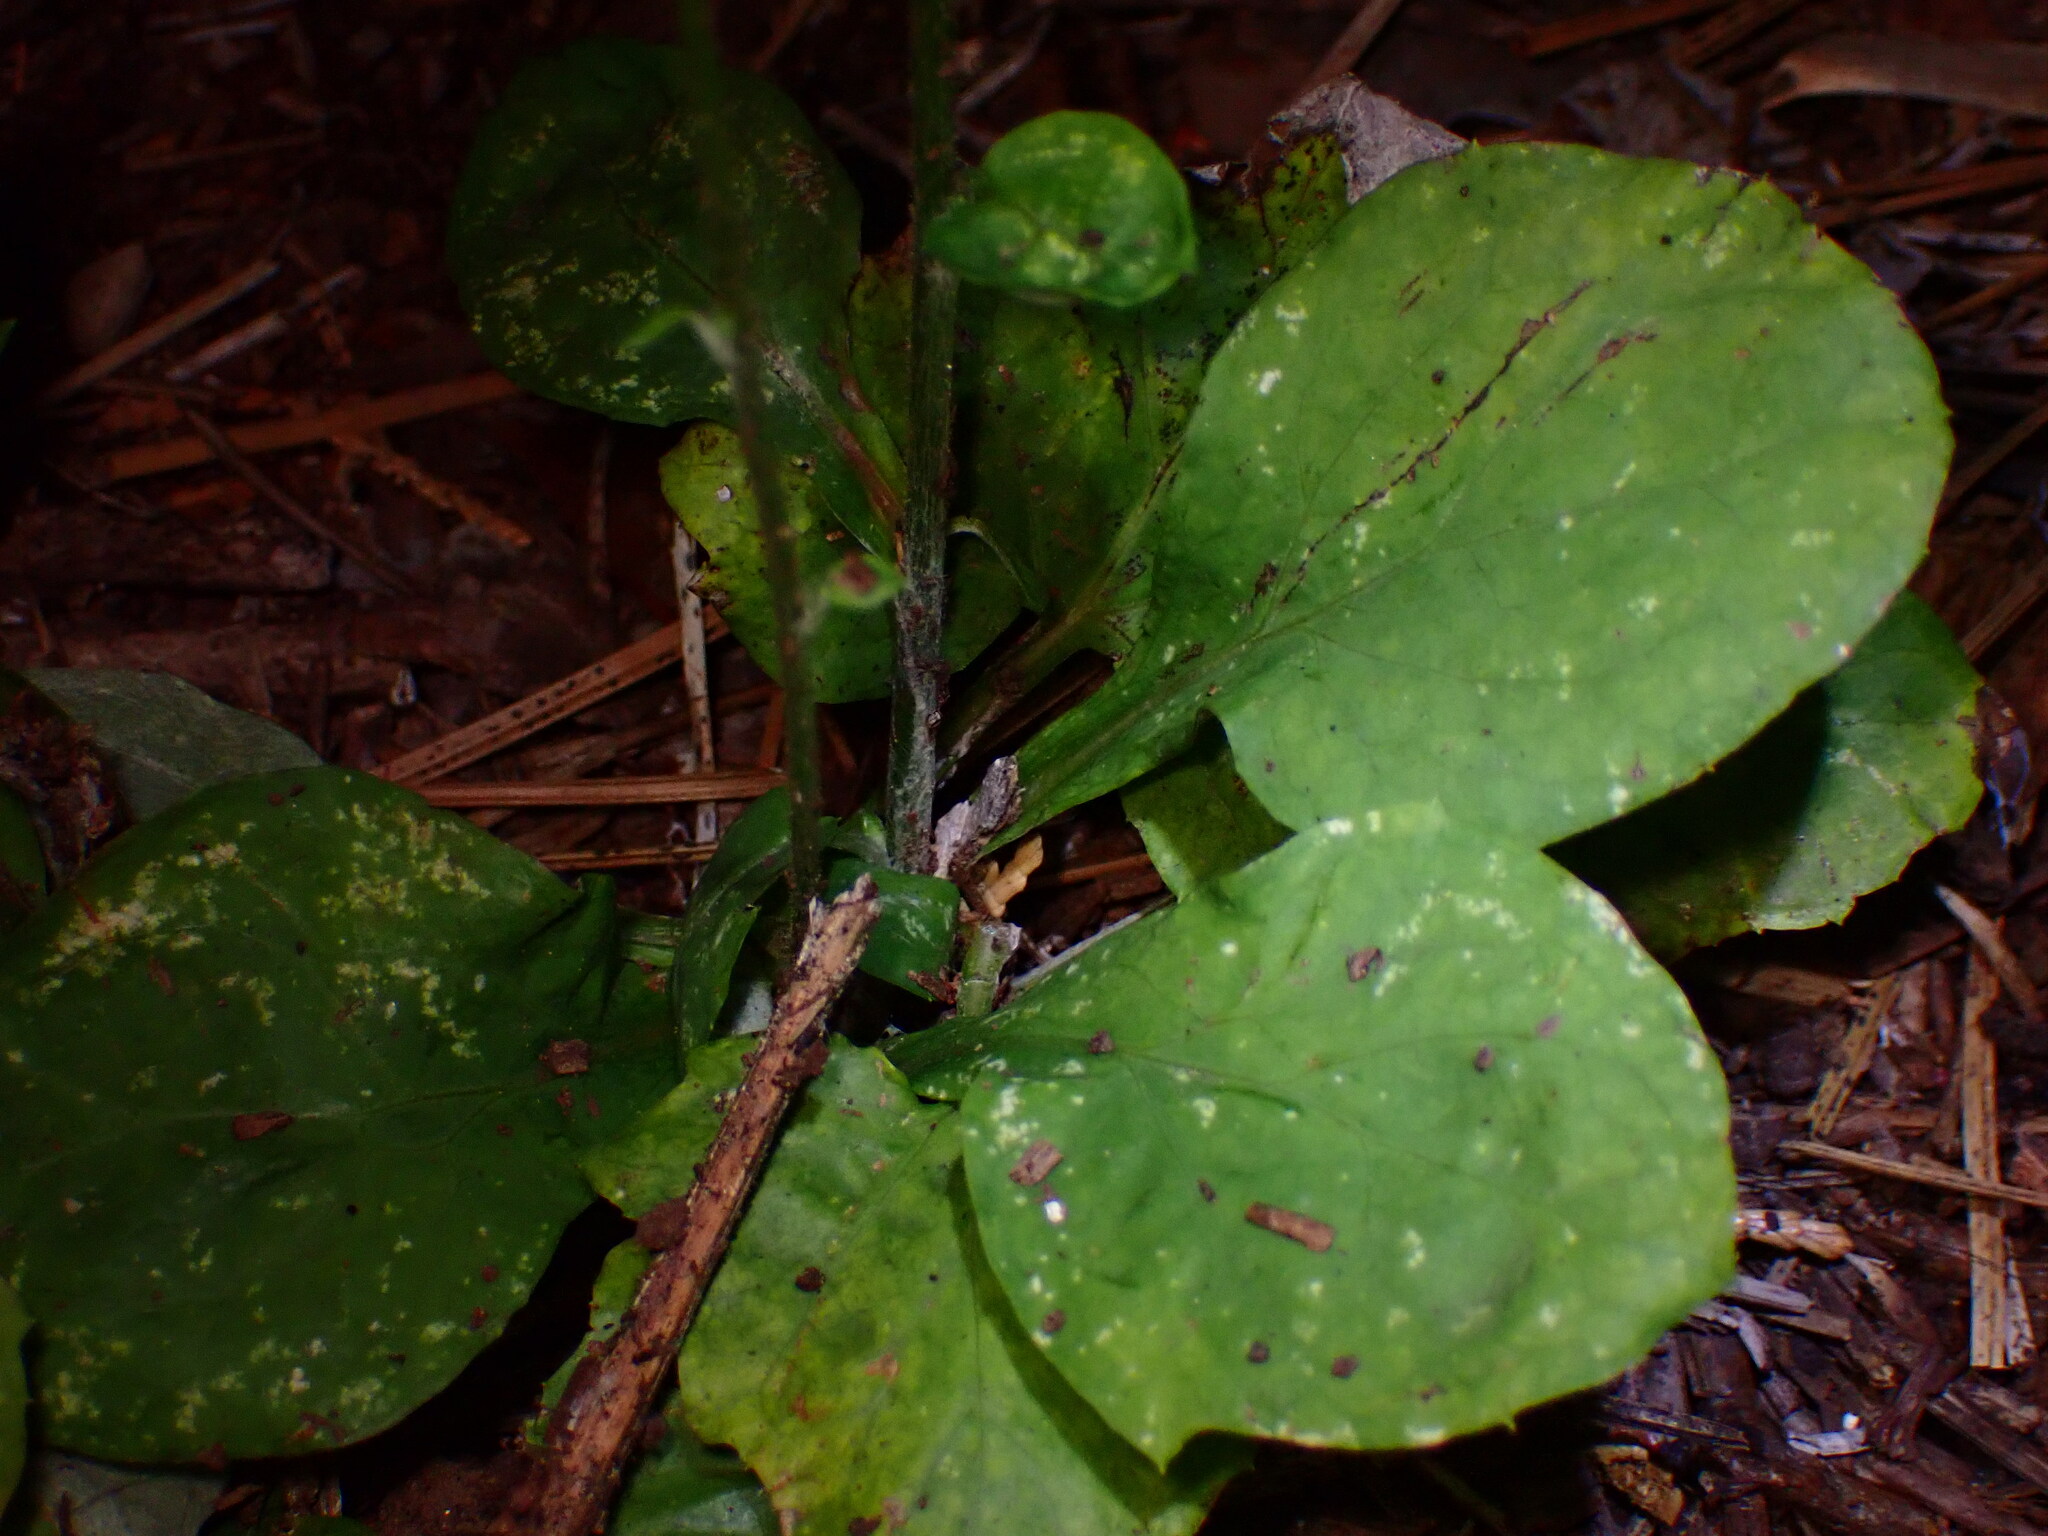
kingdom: Plantae
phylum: Tracheophyta
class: Magnoliopsida
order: Asterales
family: Asteraceae
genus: Adenocaulon
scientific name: Adenocaulon bicolor
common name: Trailplant
